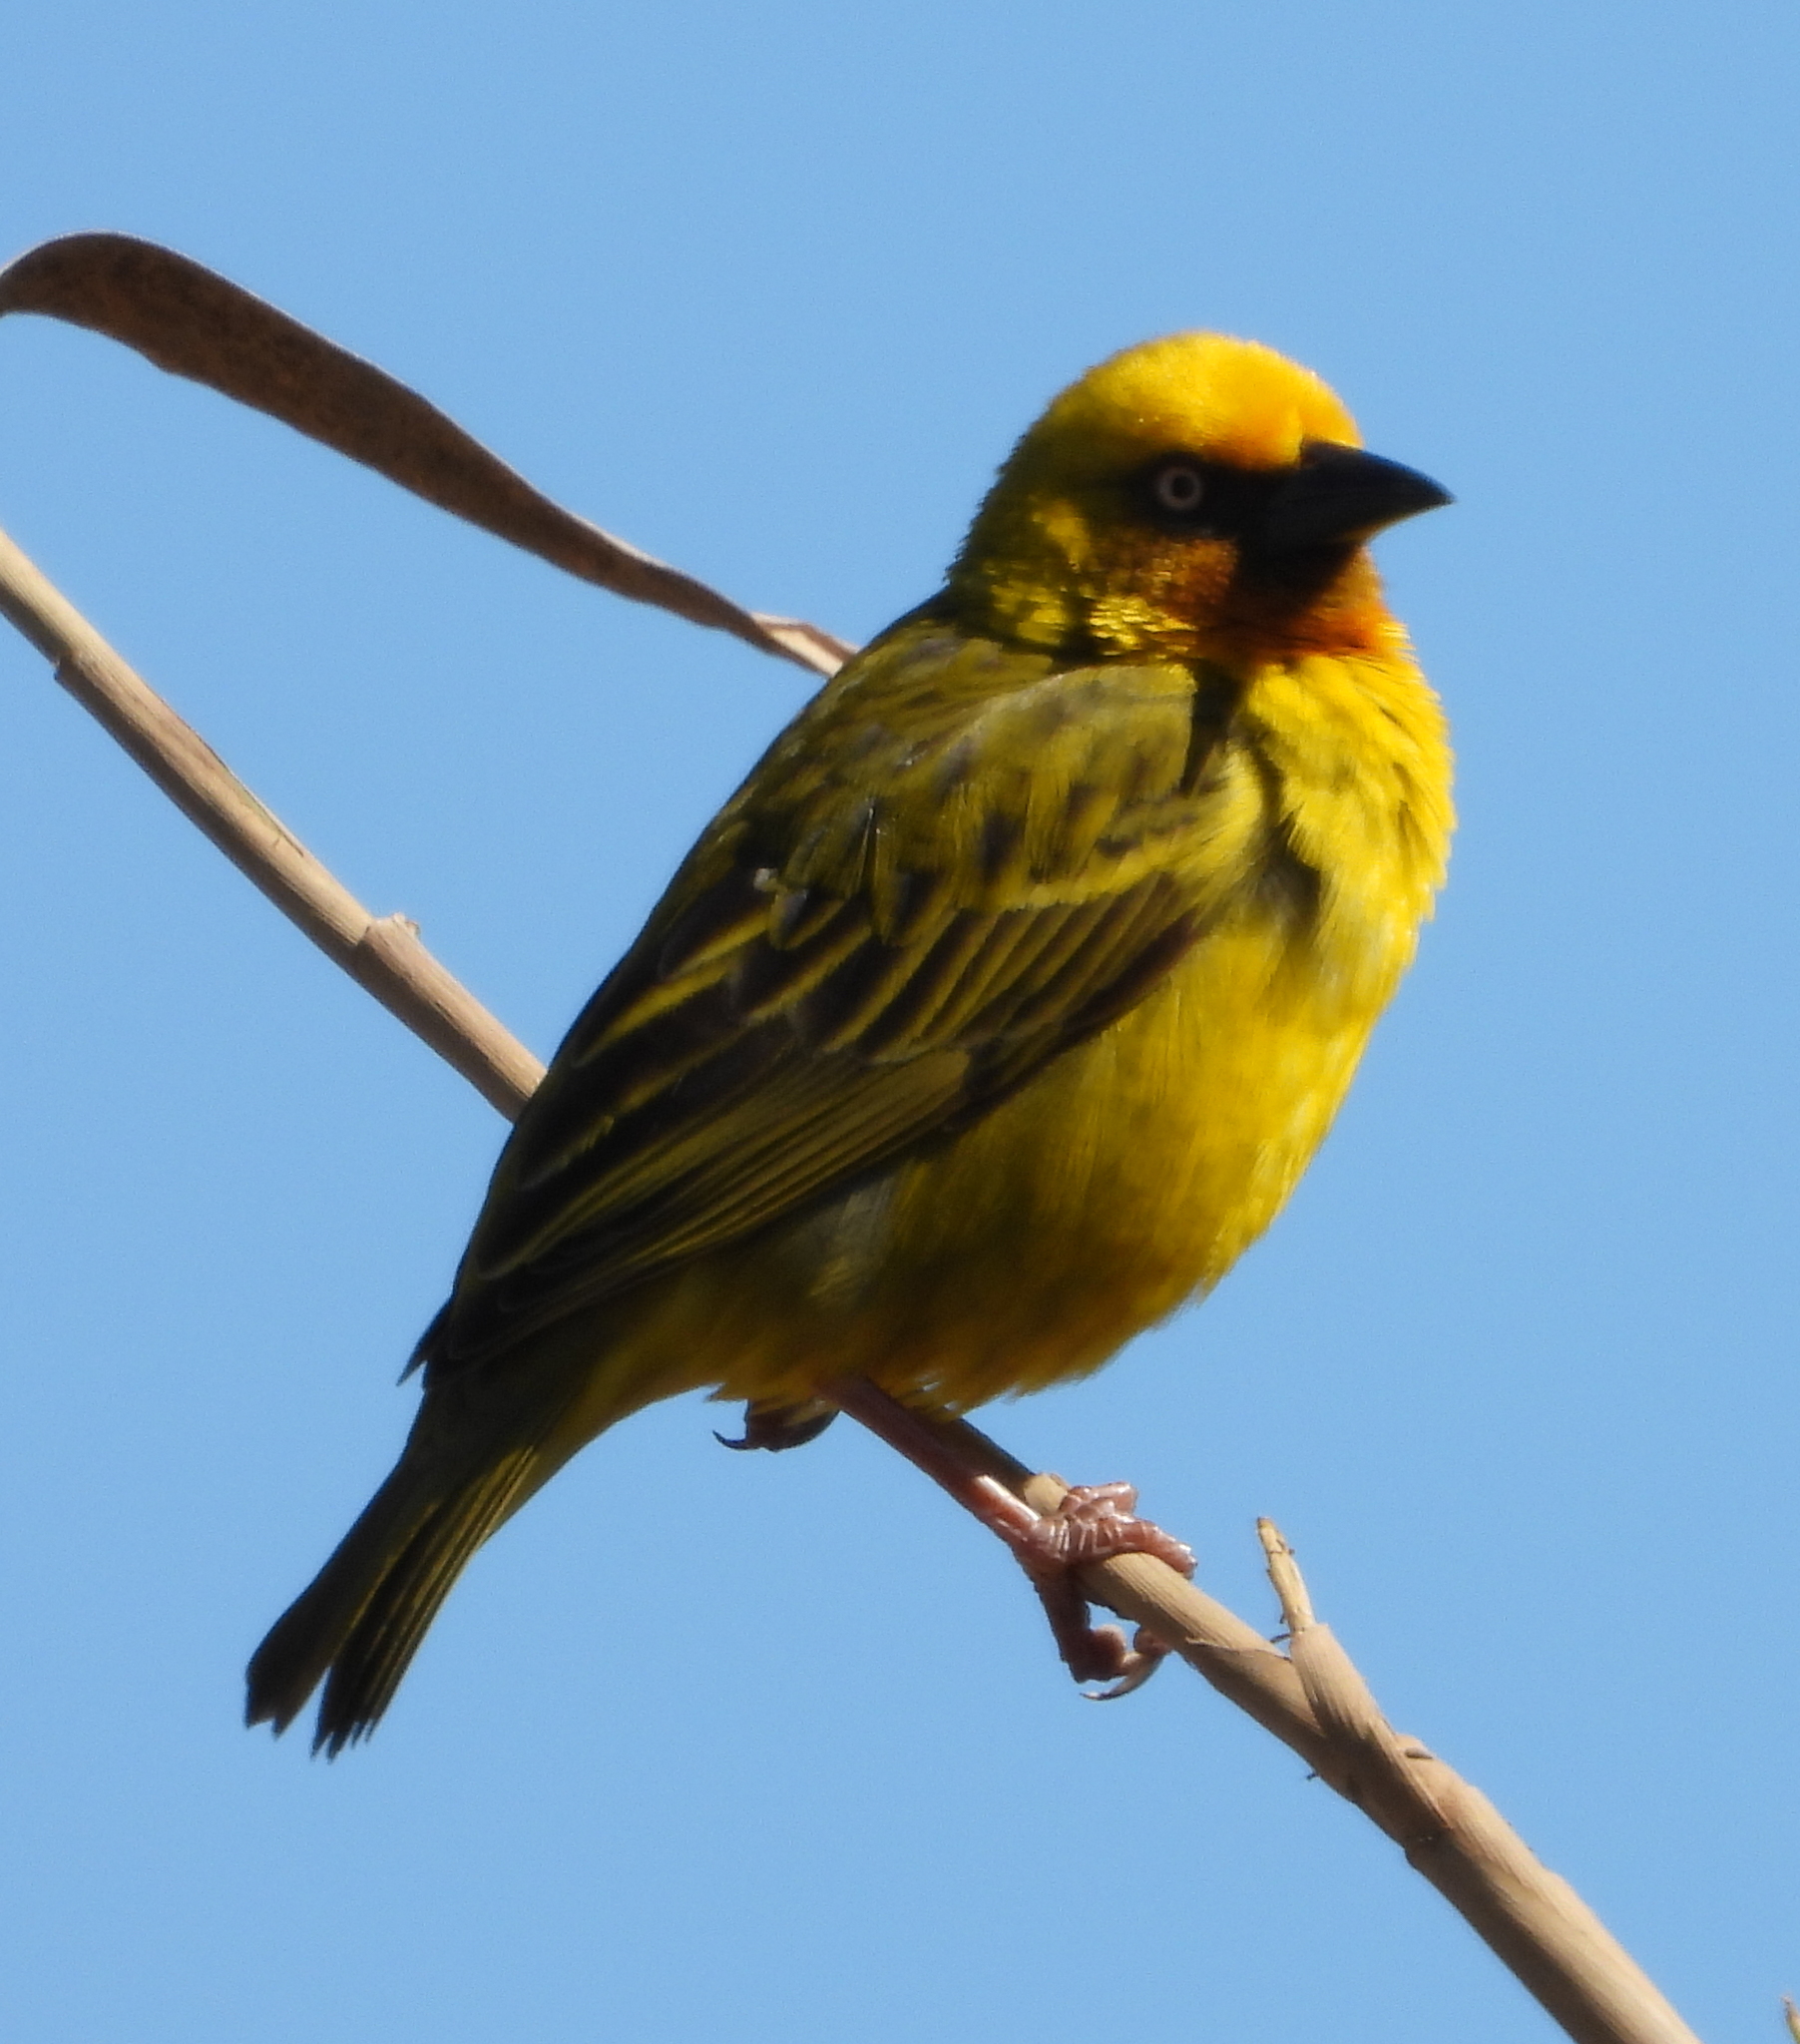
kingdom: Animalia
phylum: Chordata
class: Aves
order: Passeriformes
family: Ploceidae
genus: Ploceus
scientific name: Ploceus capensis
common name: Cape weaver
